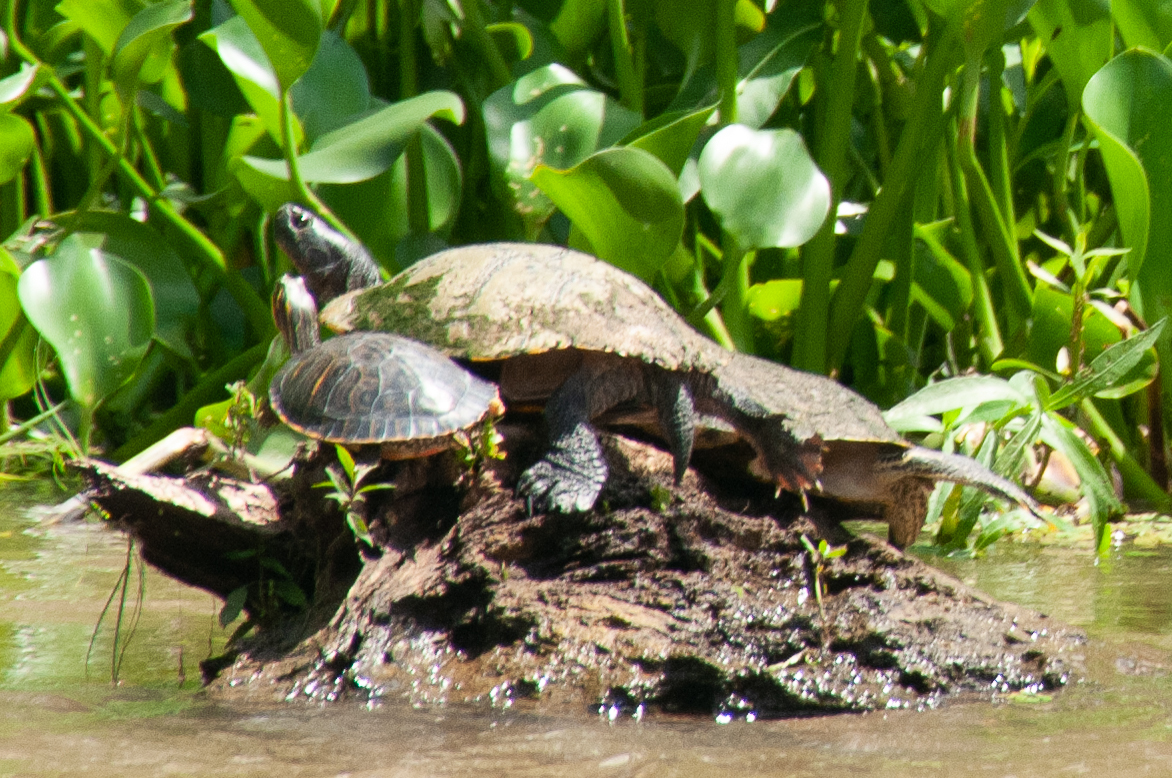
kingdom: Animalia
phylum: Chordata
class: Testudines
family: Emydidae
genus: Trachemys
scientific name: Trachemys scripta
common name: Slider
